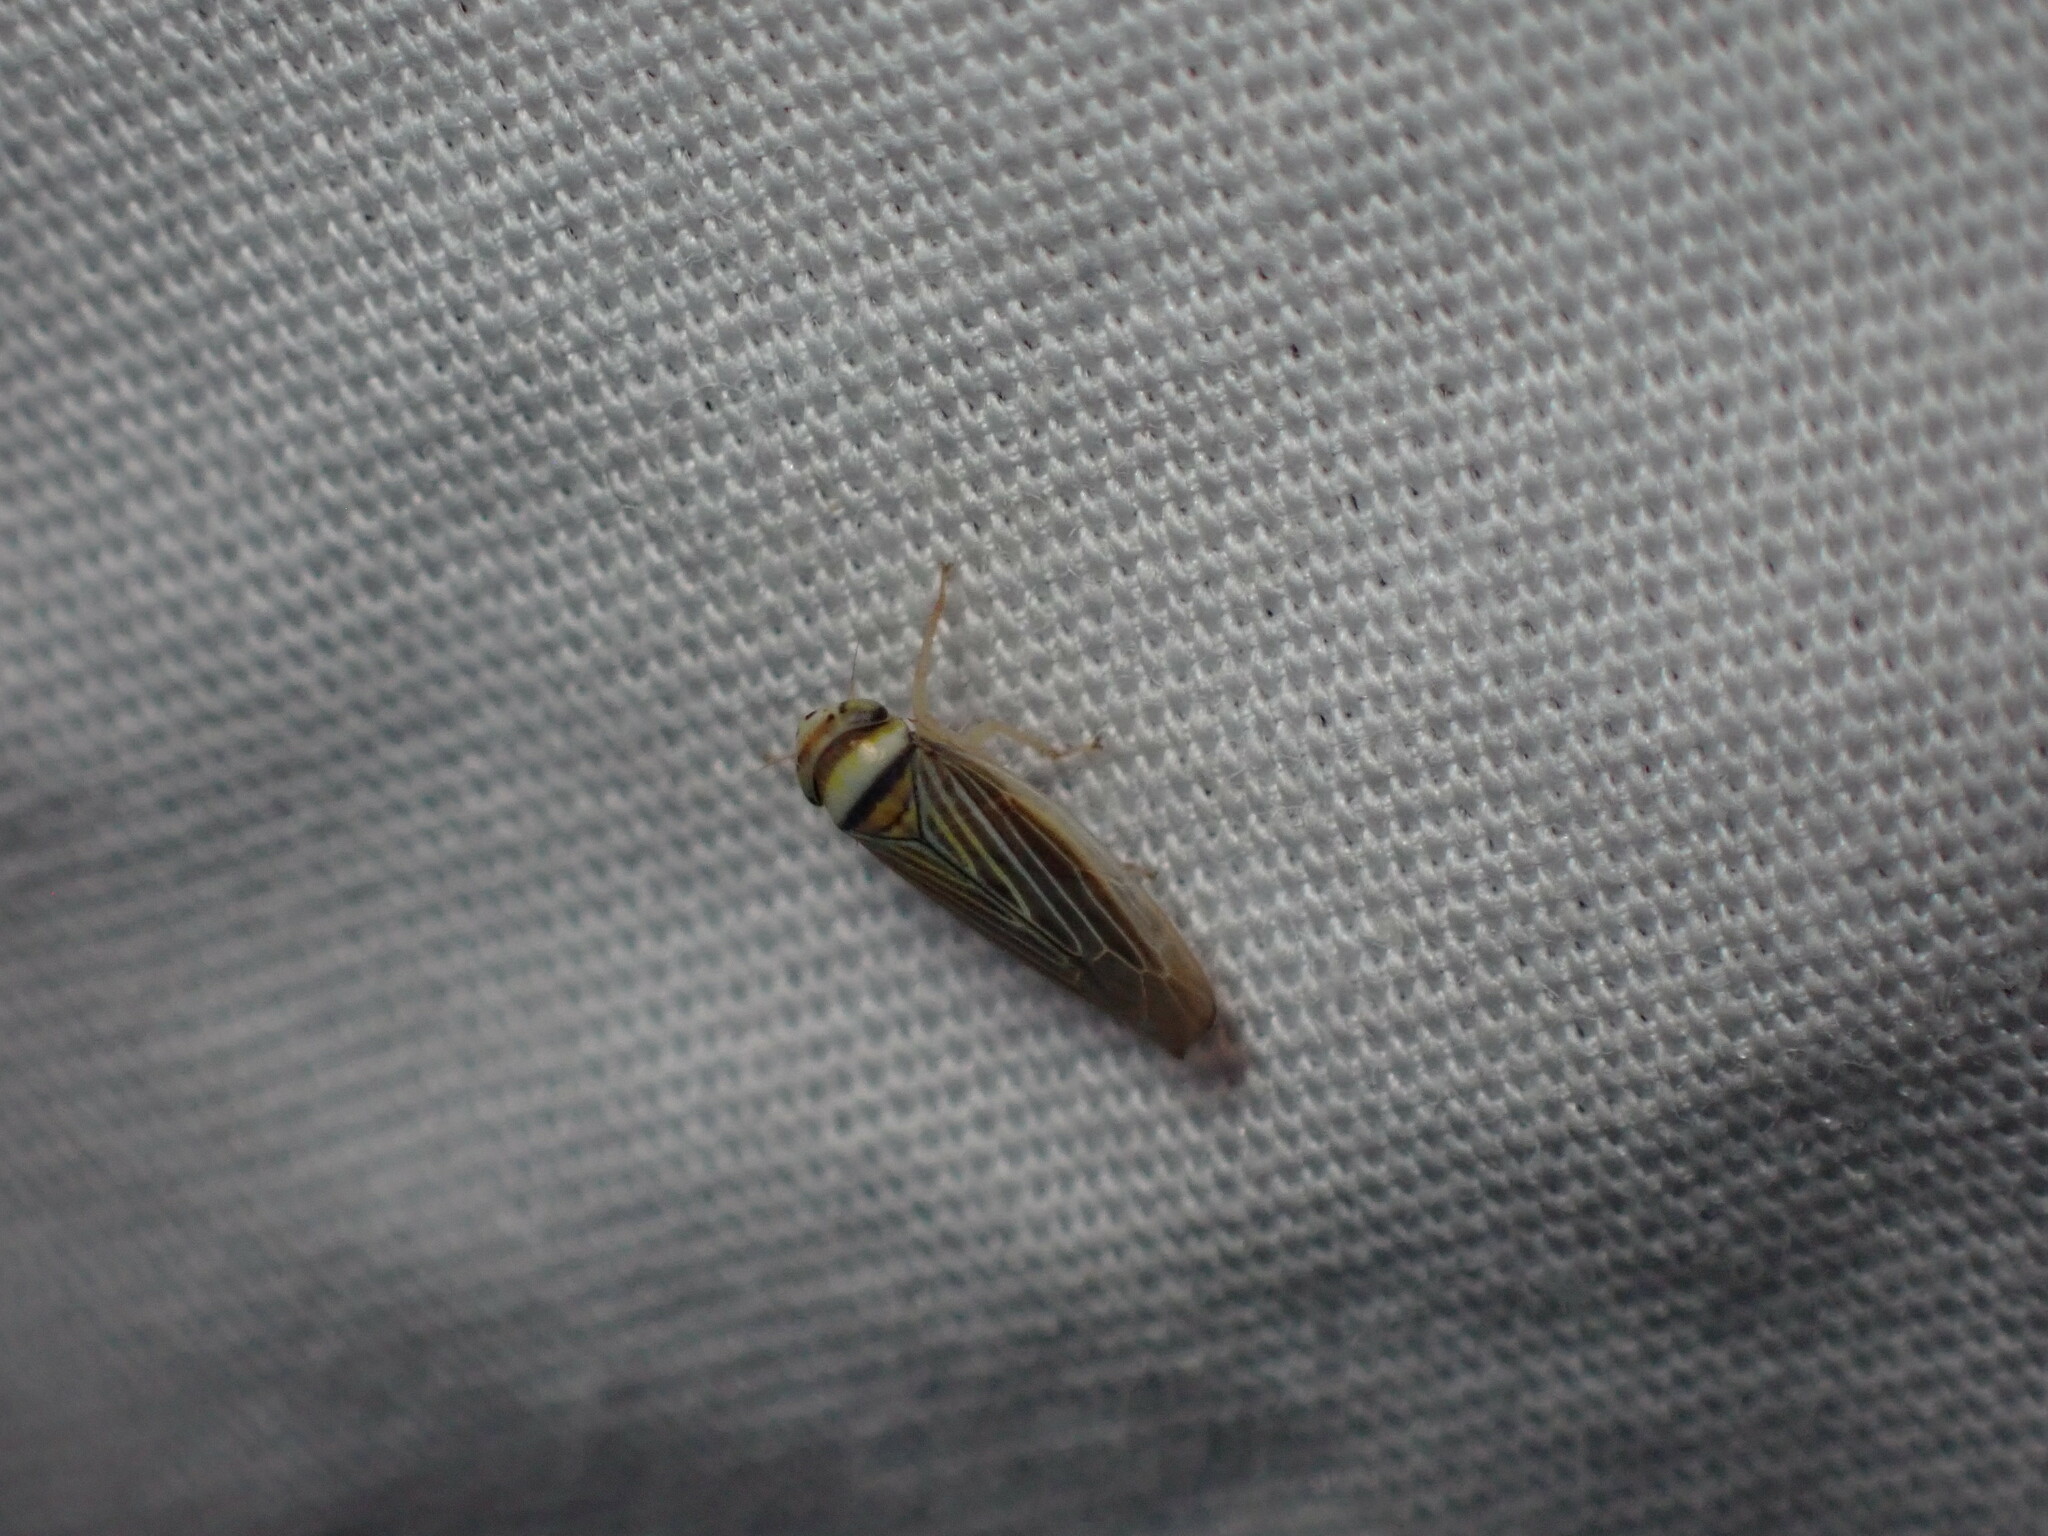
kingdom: Animalia
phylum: Arthropoda
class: Insecta
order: Hemiptera
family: Cicadellidae
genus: Colladonus
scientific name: Colladonus belli
